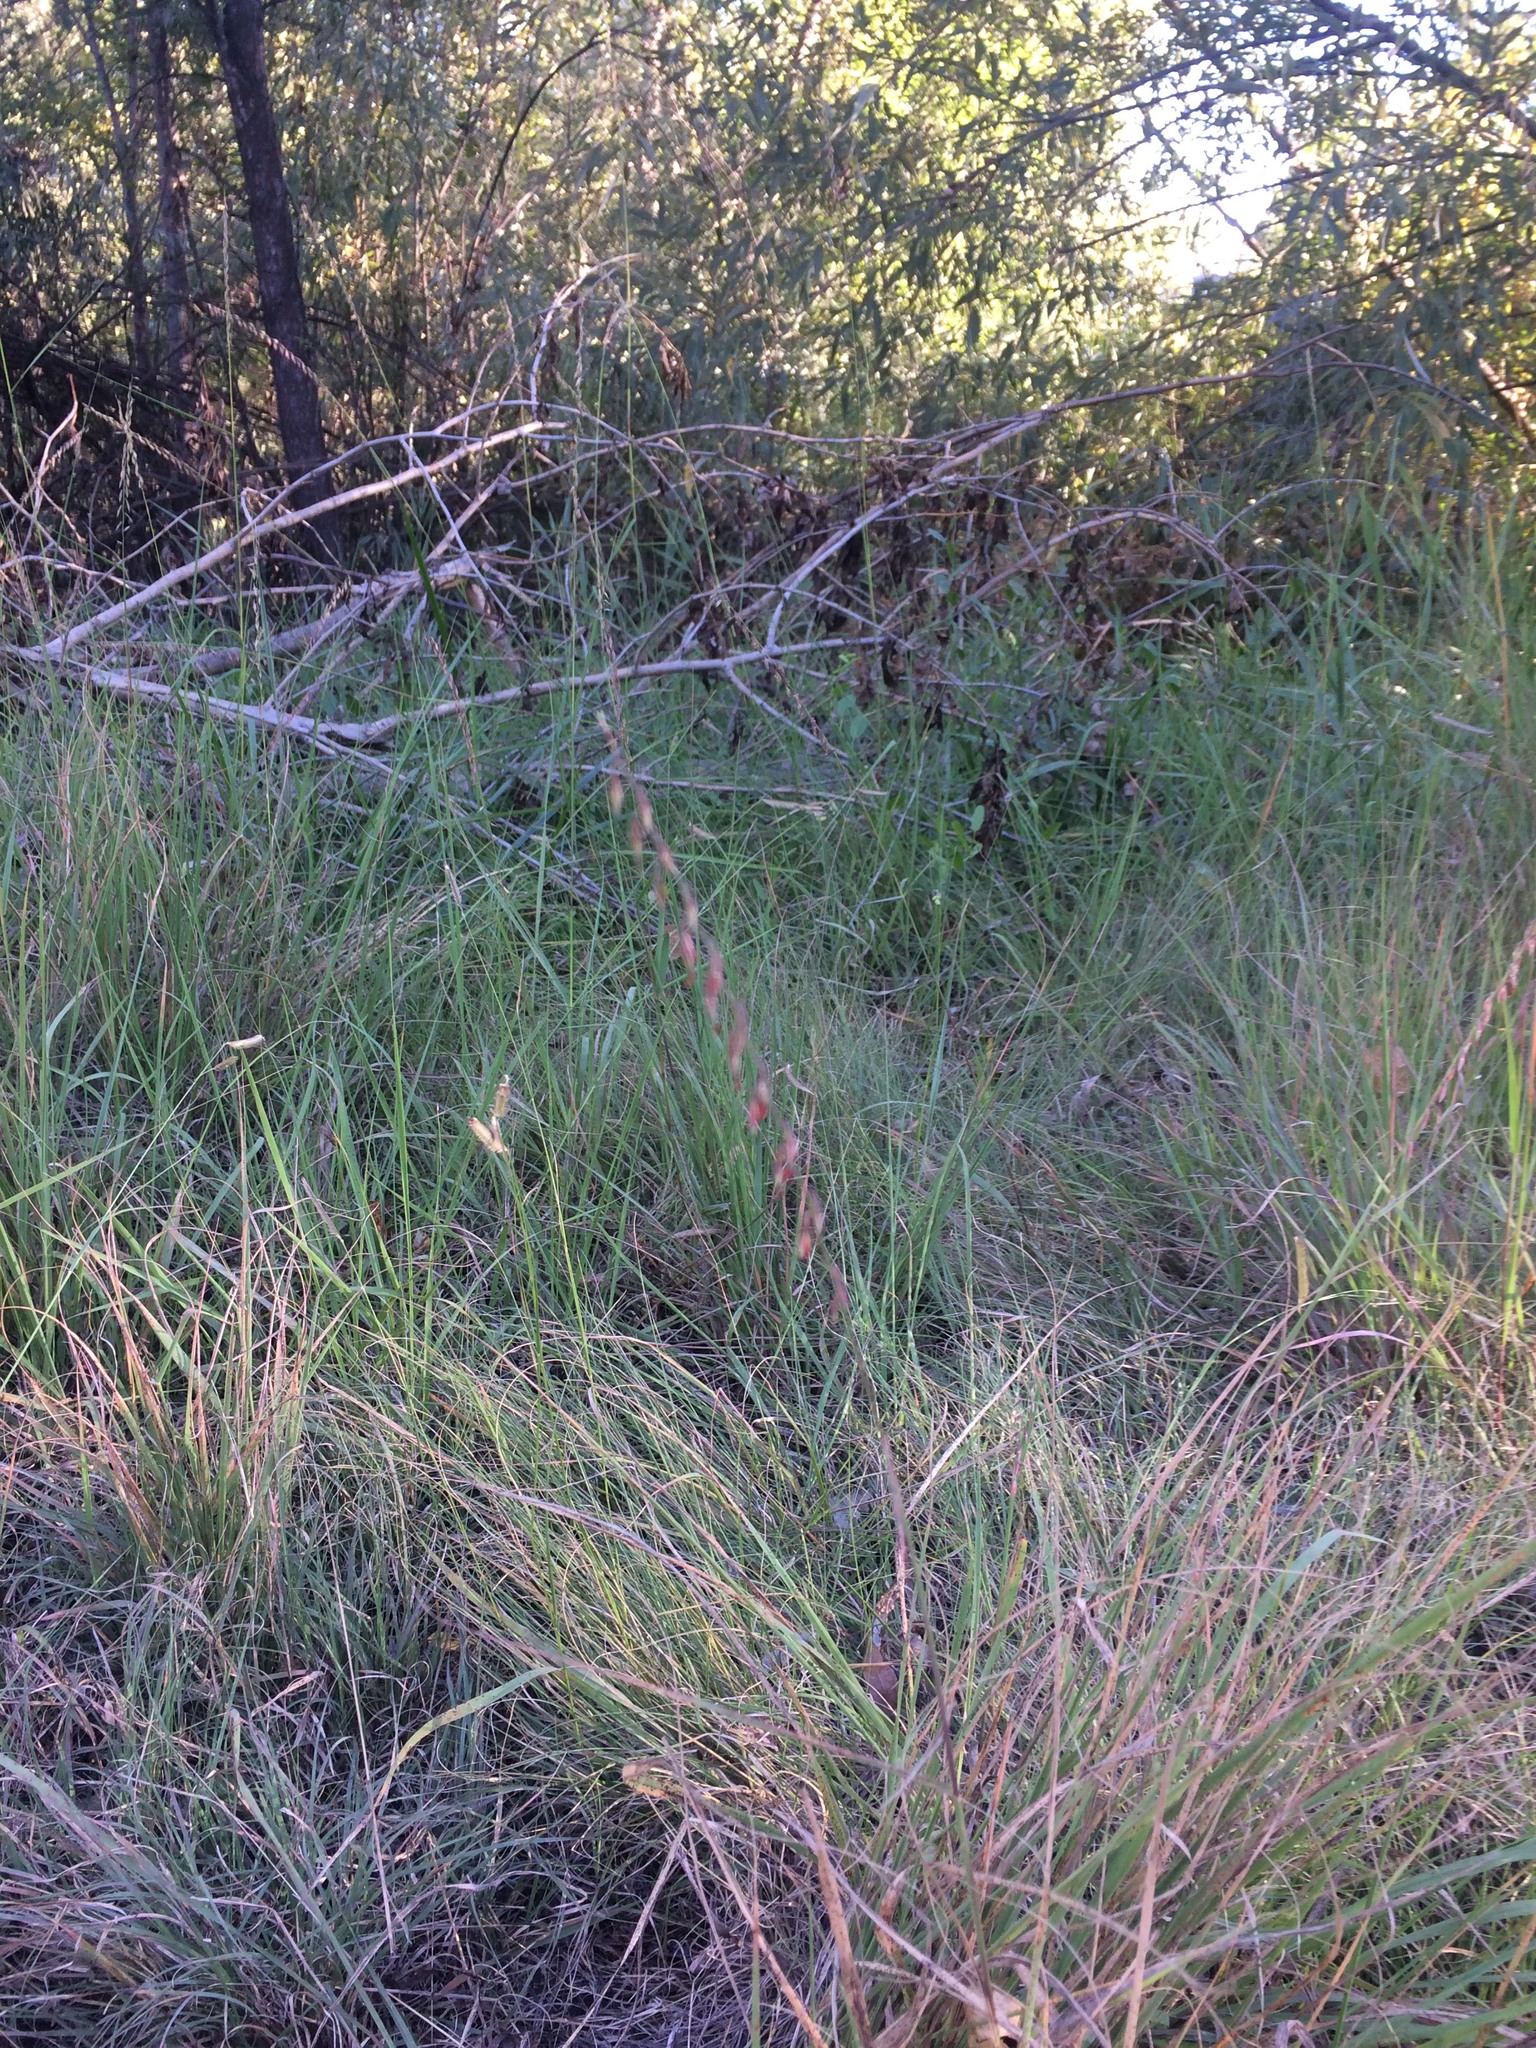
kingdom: Plantae
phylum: Tracheophyta
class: Liliopsida
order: Poales
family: Poaceae
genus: Bouteloua
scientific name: Bouteloua curtipendula
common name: Side-oats grama
